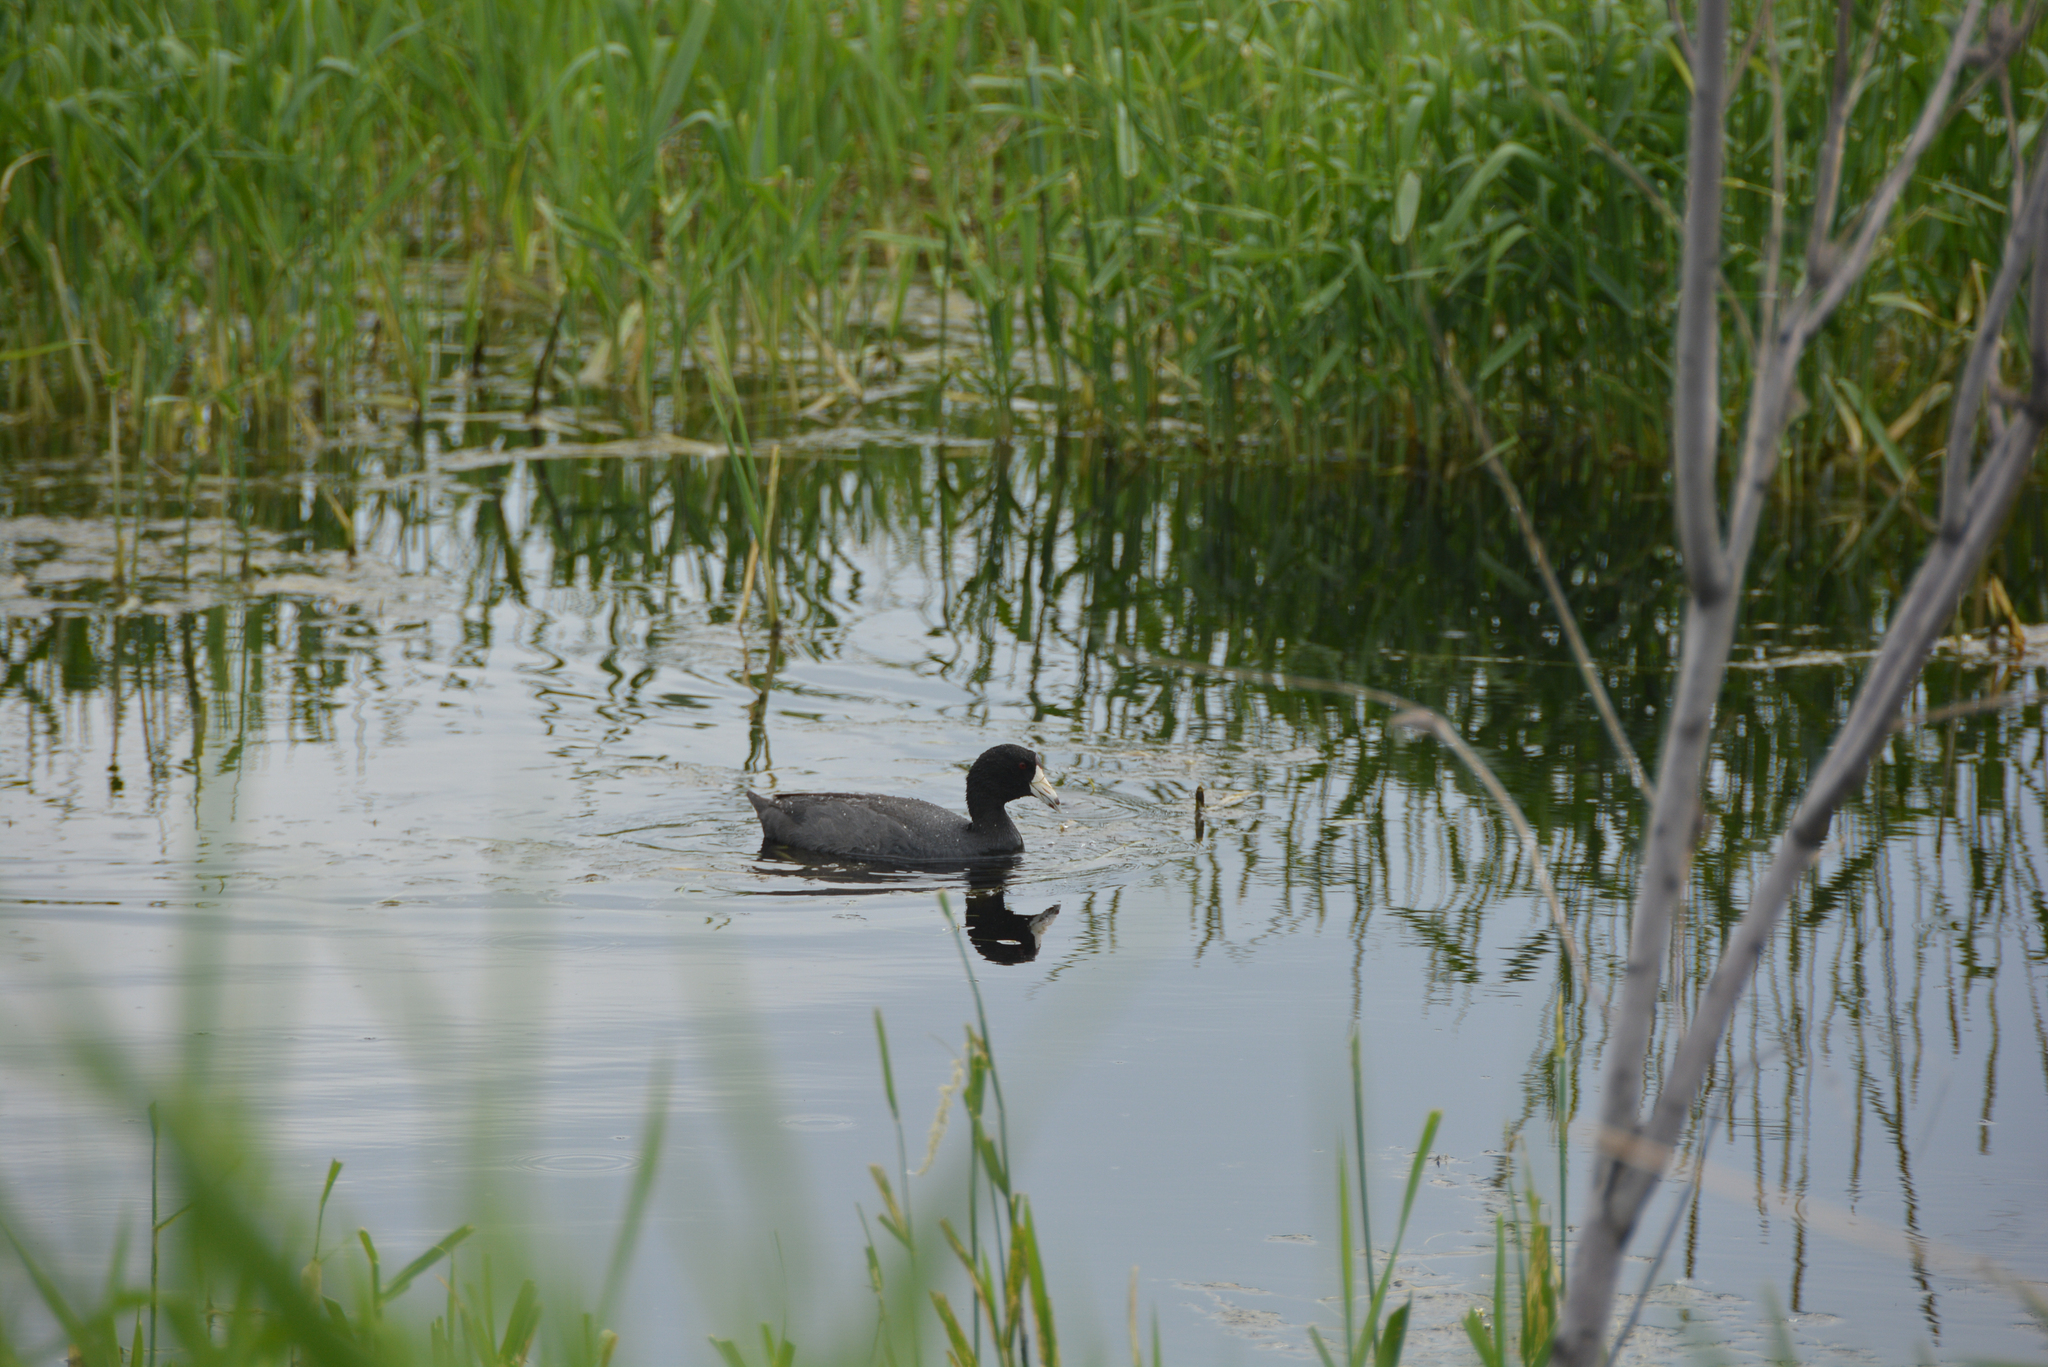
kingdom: Animalia
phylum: Chordata
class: Aves
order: Gruiformes
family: Rallidae
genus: Fulica
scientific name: Fulica americana
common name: American coot
